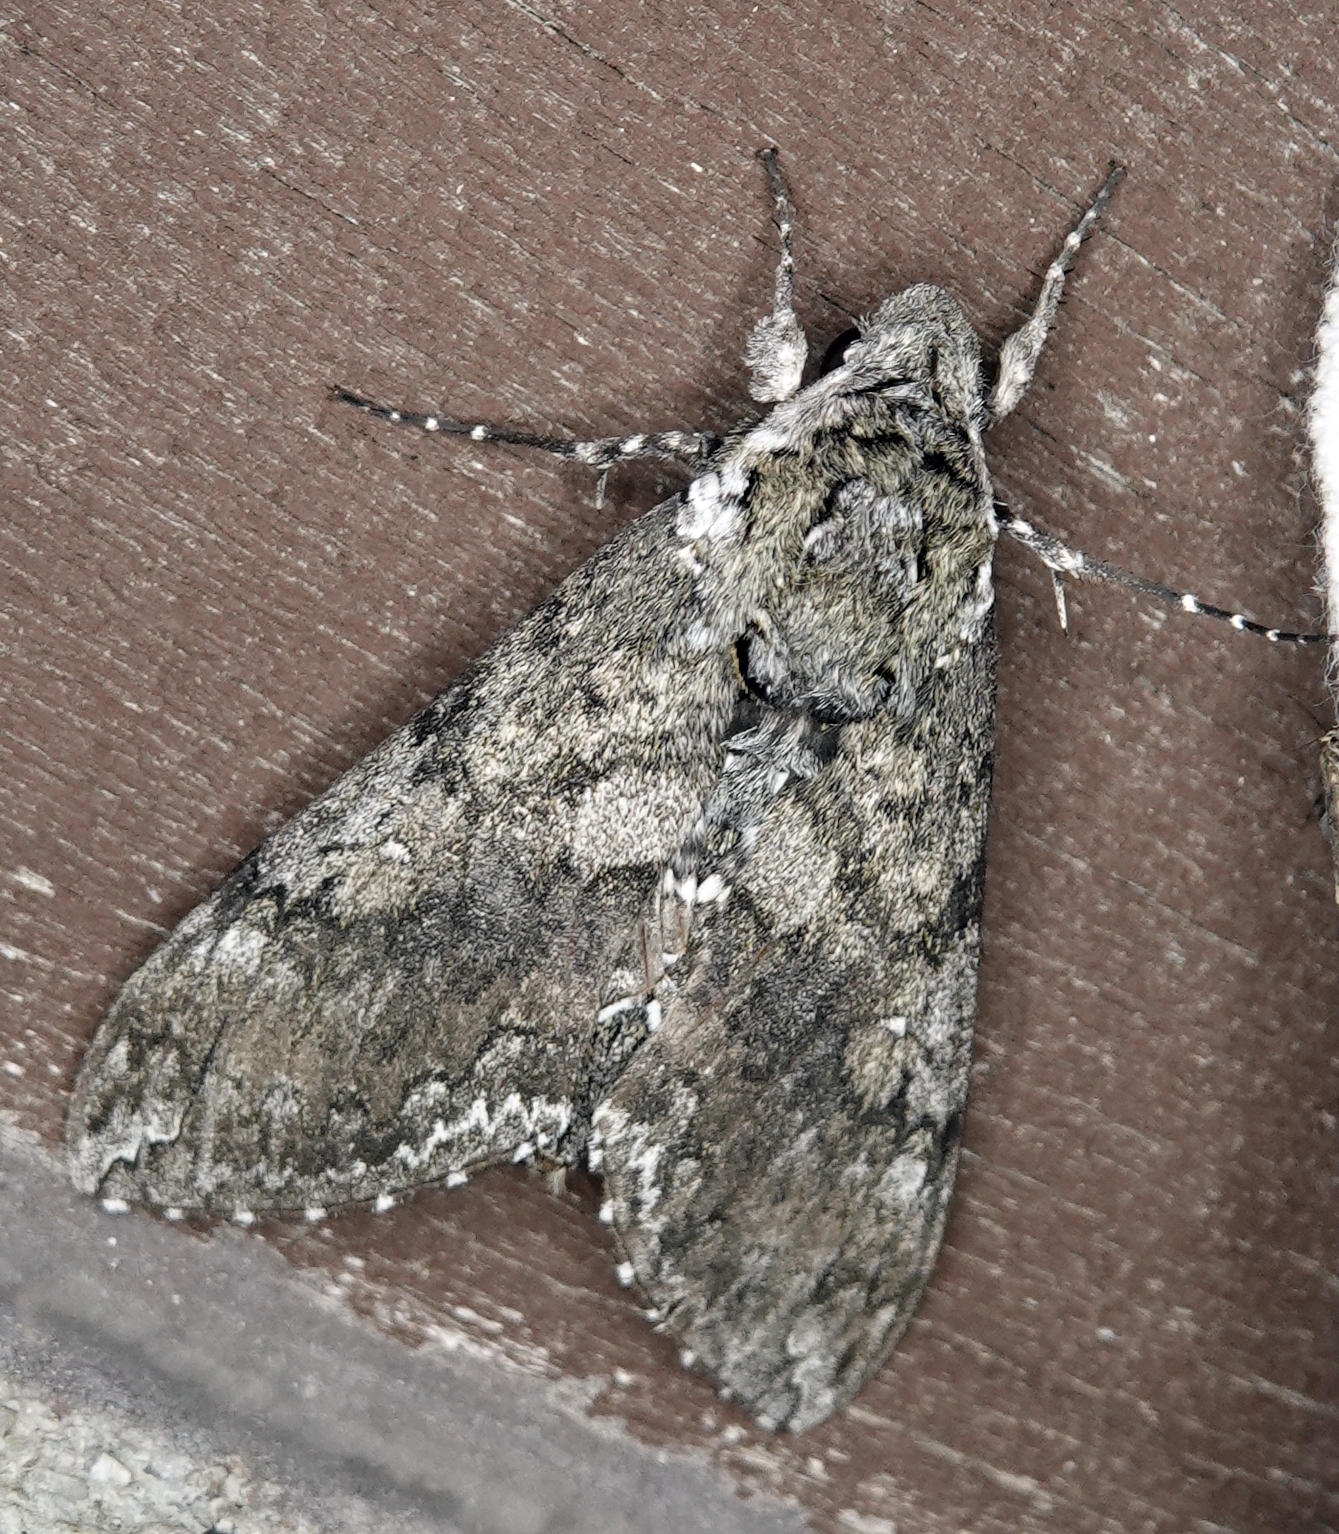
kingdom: Animalia
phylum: Arthropoda
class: Insecta
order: Lepidoptera
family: Sphingidae
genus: Manduca
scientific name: Manduca sexta
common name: Carolina sphinx
